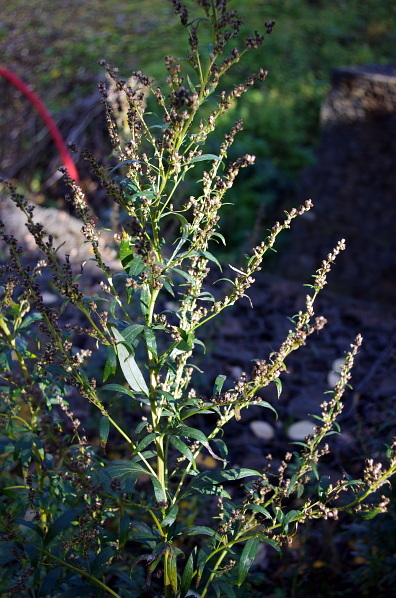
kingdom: Plantae
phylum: Tracheophyta
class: Magnoliopsida
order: Asterales
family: Asteraceae
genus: Artemisia
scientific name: Artemisia vulgaris
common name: Mugwort
